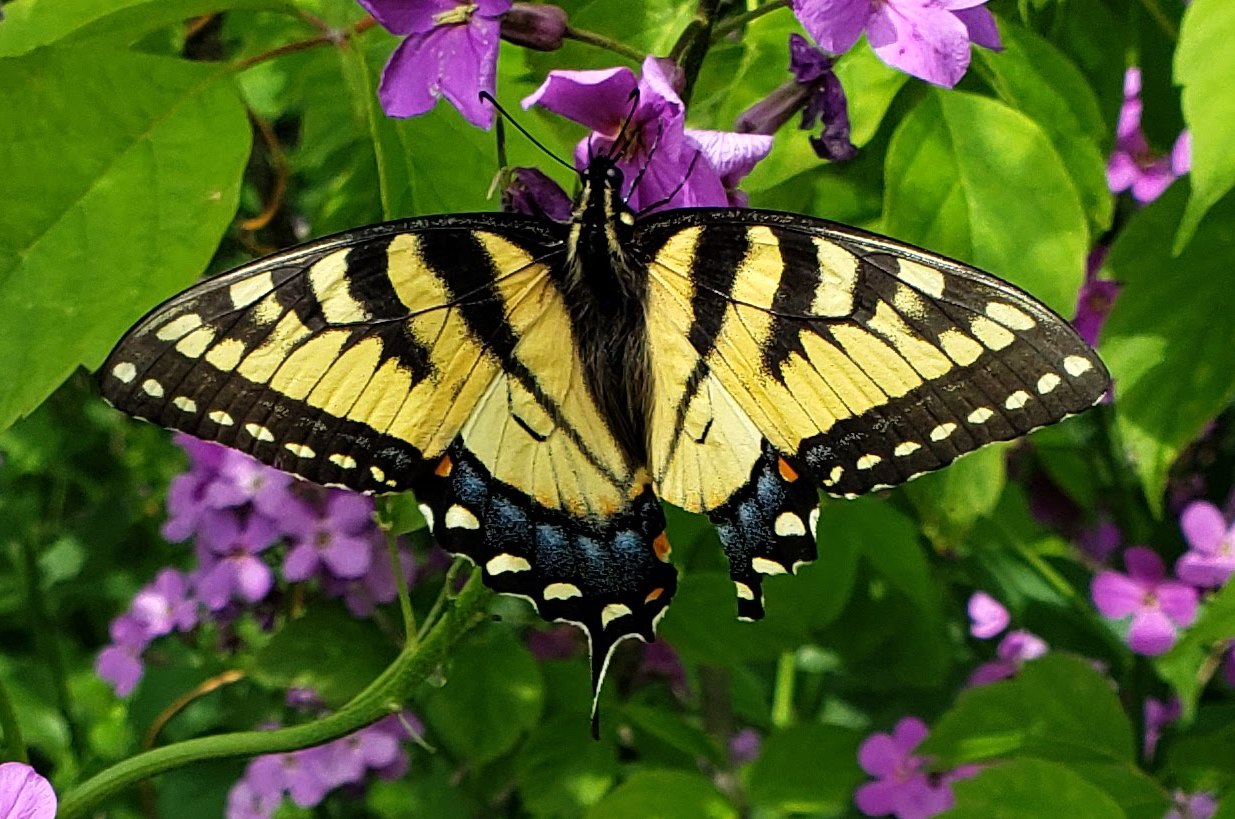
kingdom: Animalia
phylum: Arthropoda
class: Insecta
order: Lepidoptera
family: Papilionidae
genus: Papilio
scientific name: Papilio glaucus
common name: Tiger swallowtail
